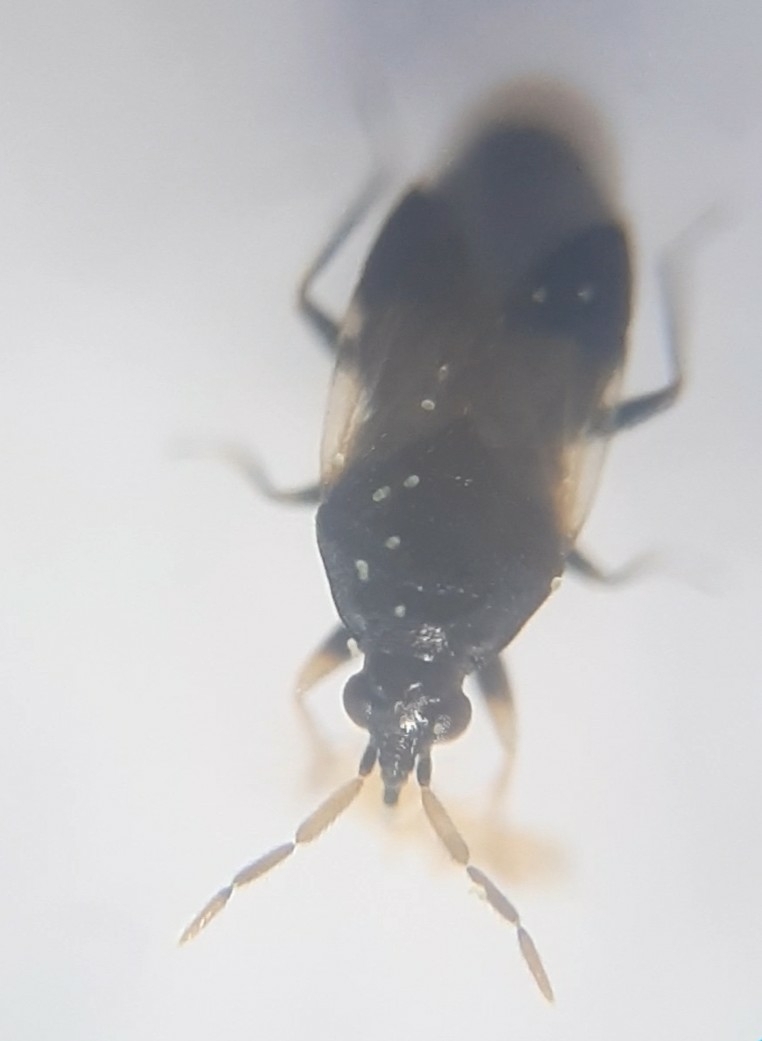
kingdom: Animalia
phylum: Arthropoda
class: Insecta
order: Hemiptera
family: Anthocoridae
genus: Orius
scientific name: Orius insidiosus
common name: Insidious flower bug
